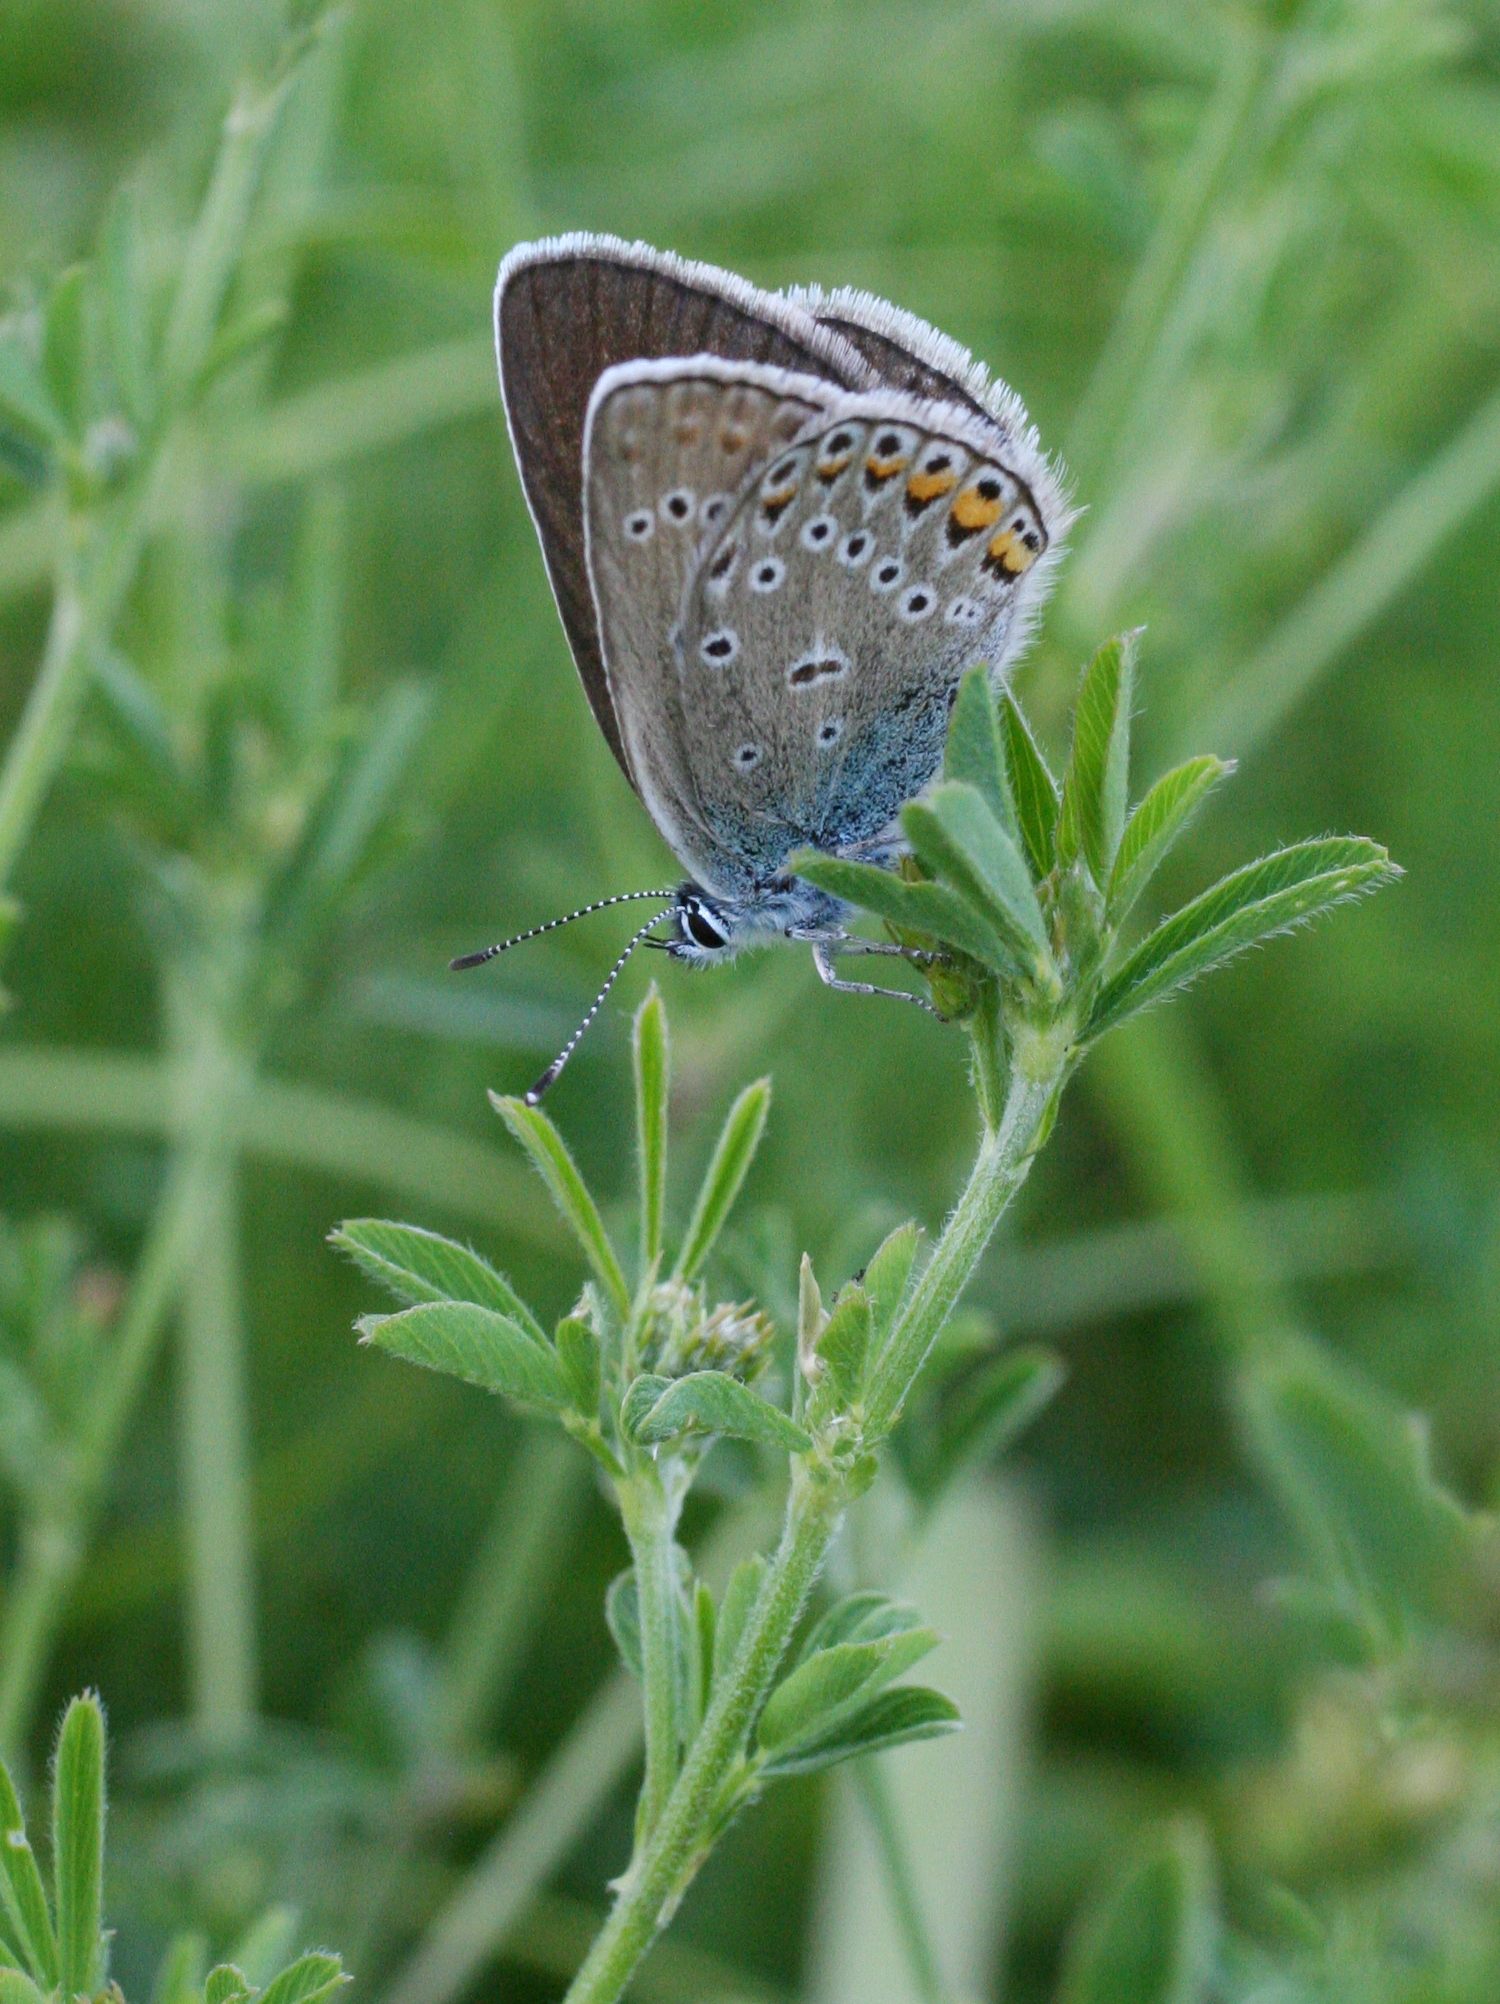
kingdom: Animalia
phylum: Arthropoda
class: Insecta
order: Lepidoptera
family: Lycaenidae
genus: Plebejus
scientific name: Plebejus amanda
